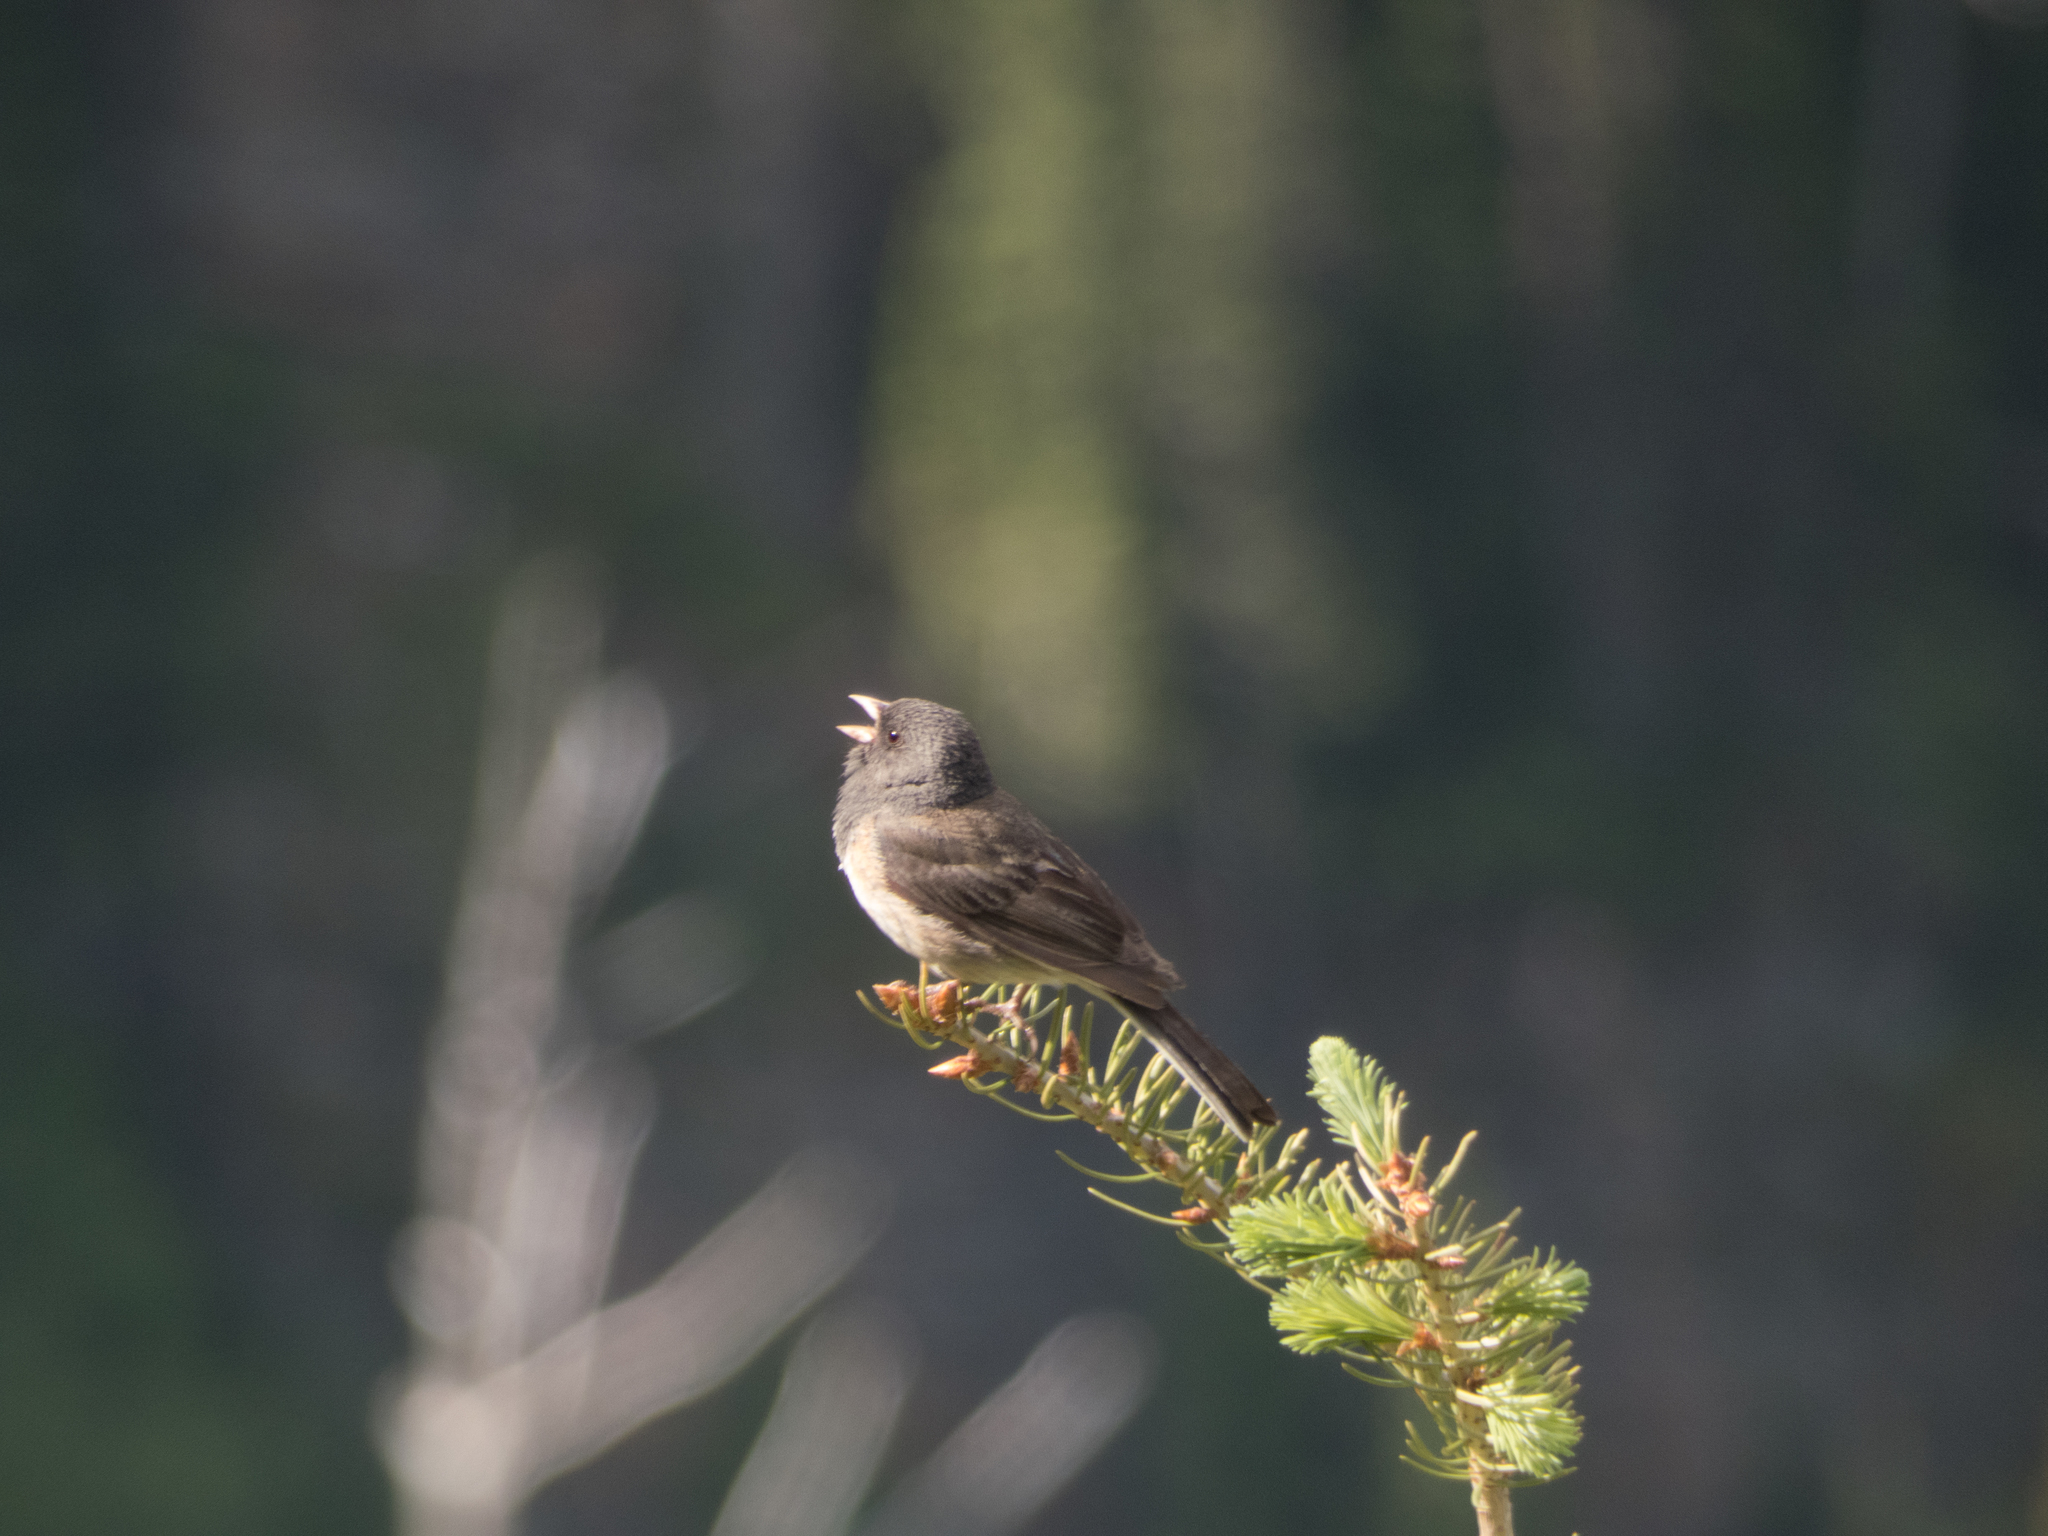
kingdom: Animalia
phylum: Chordata
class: Aves
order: Passeriformes
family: Passerellidae
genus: Junco
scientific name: Junco hyemalis
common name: Dark-eyed junco
